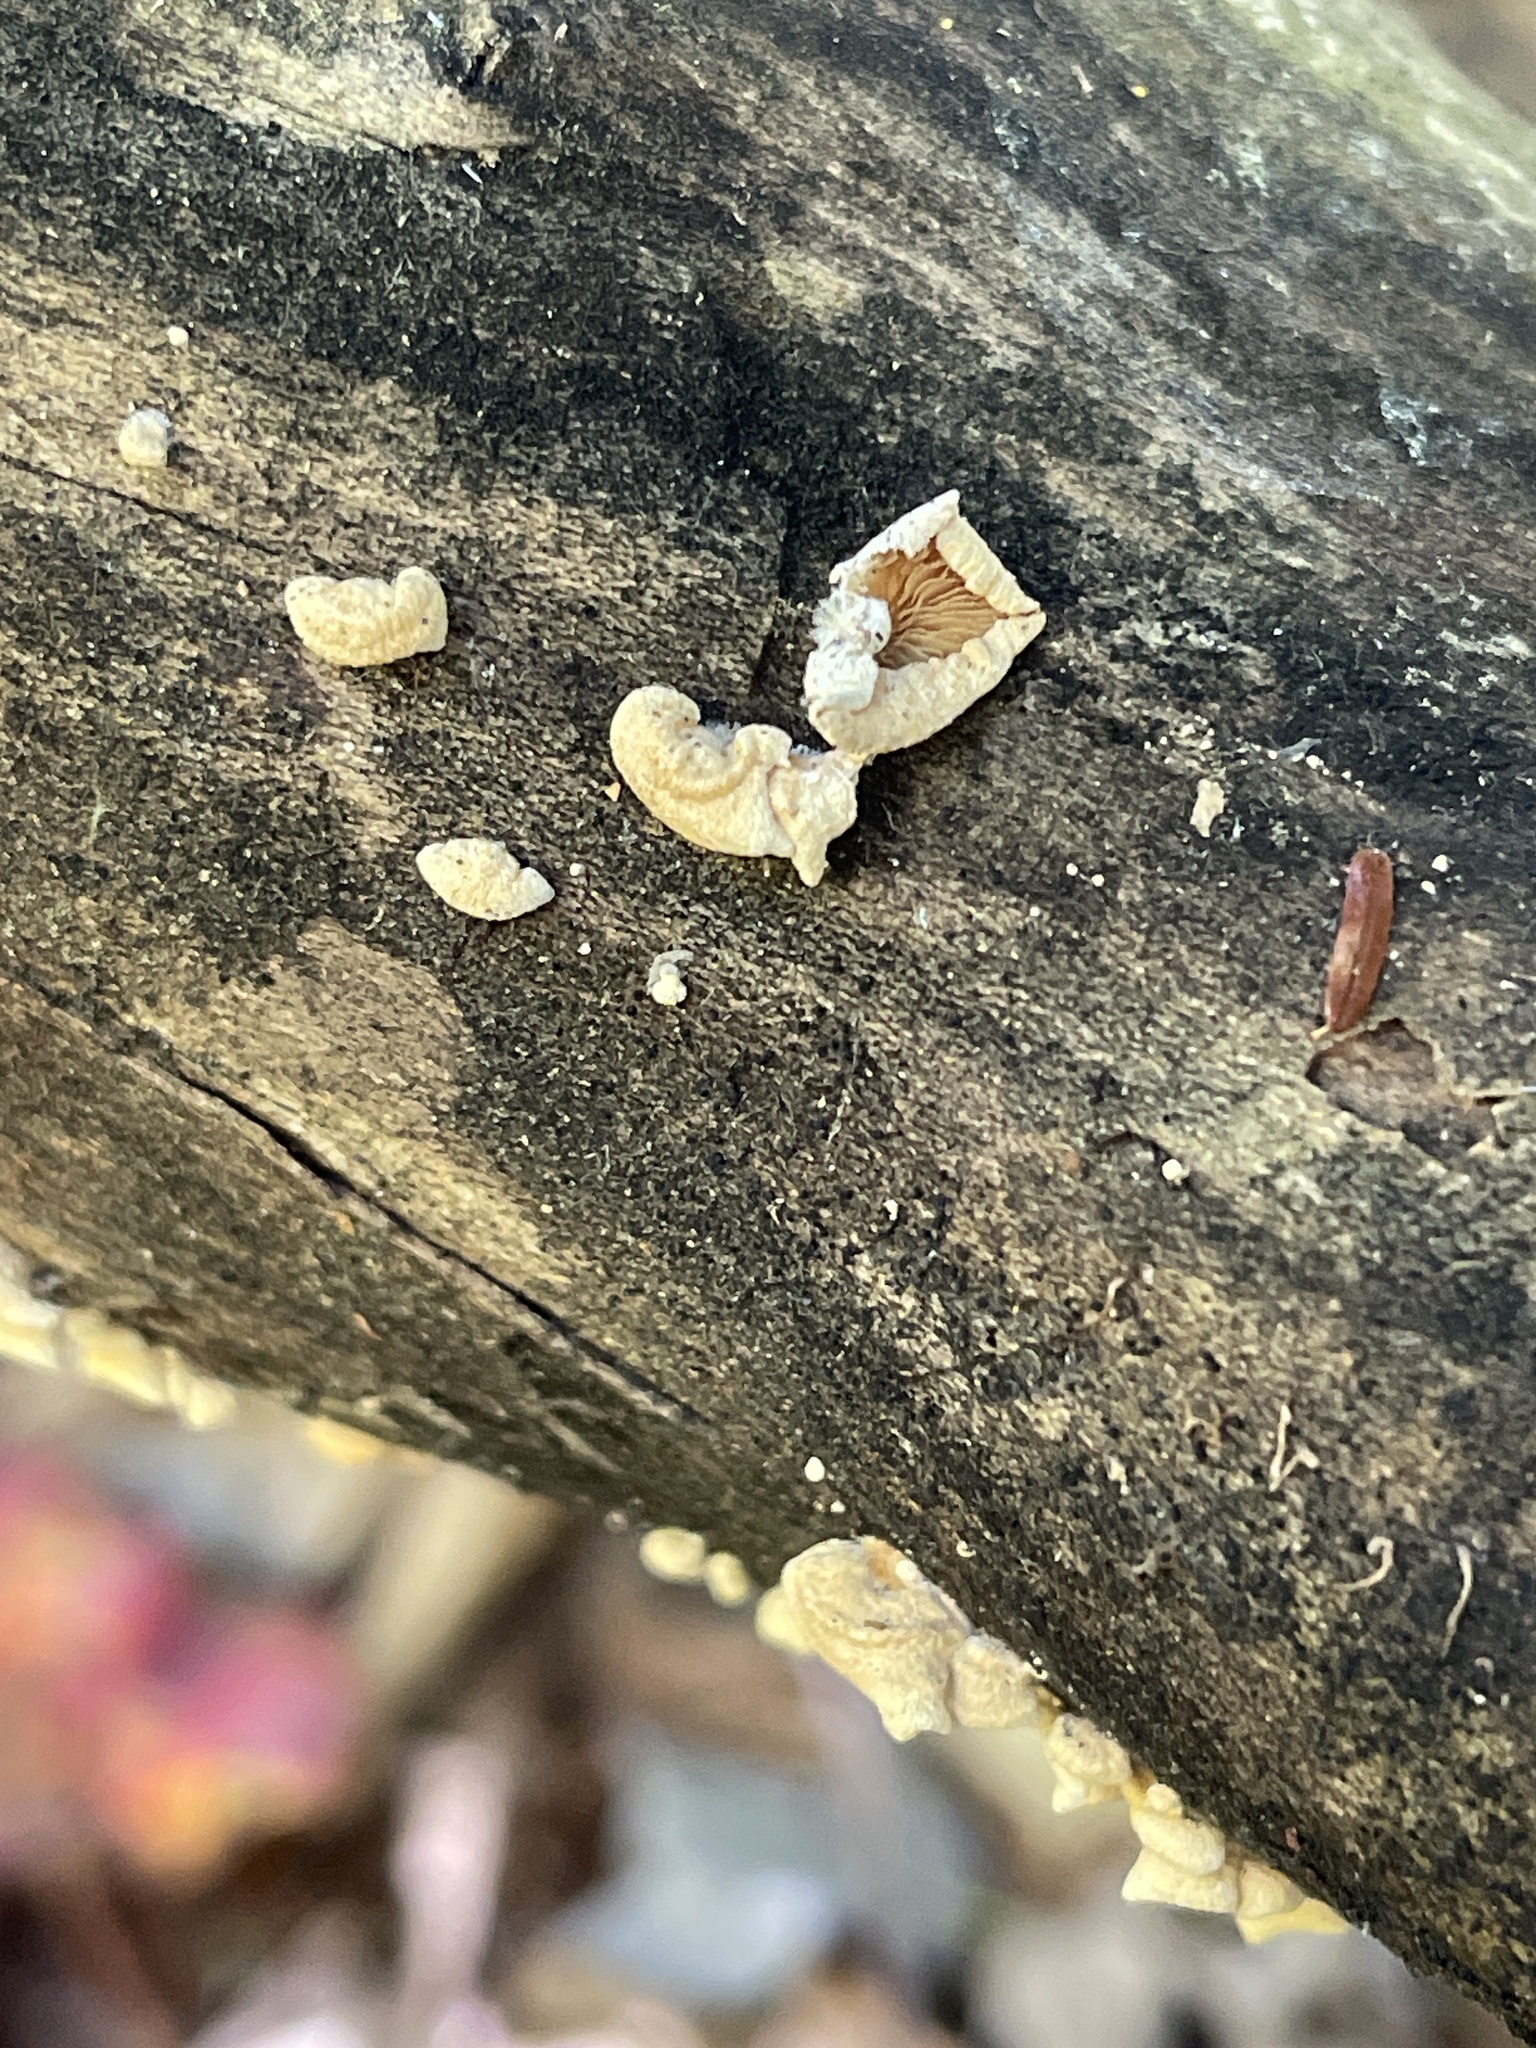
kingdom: Fungi
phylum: Basidiomycota
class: Agaricomycetes
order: Agaricales
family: Mycenaceae
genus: Panellus
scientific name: Panellus stipticus
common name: Bitter oysterling
